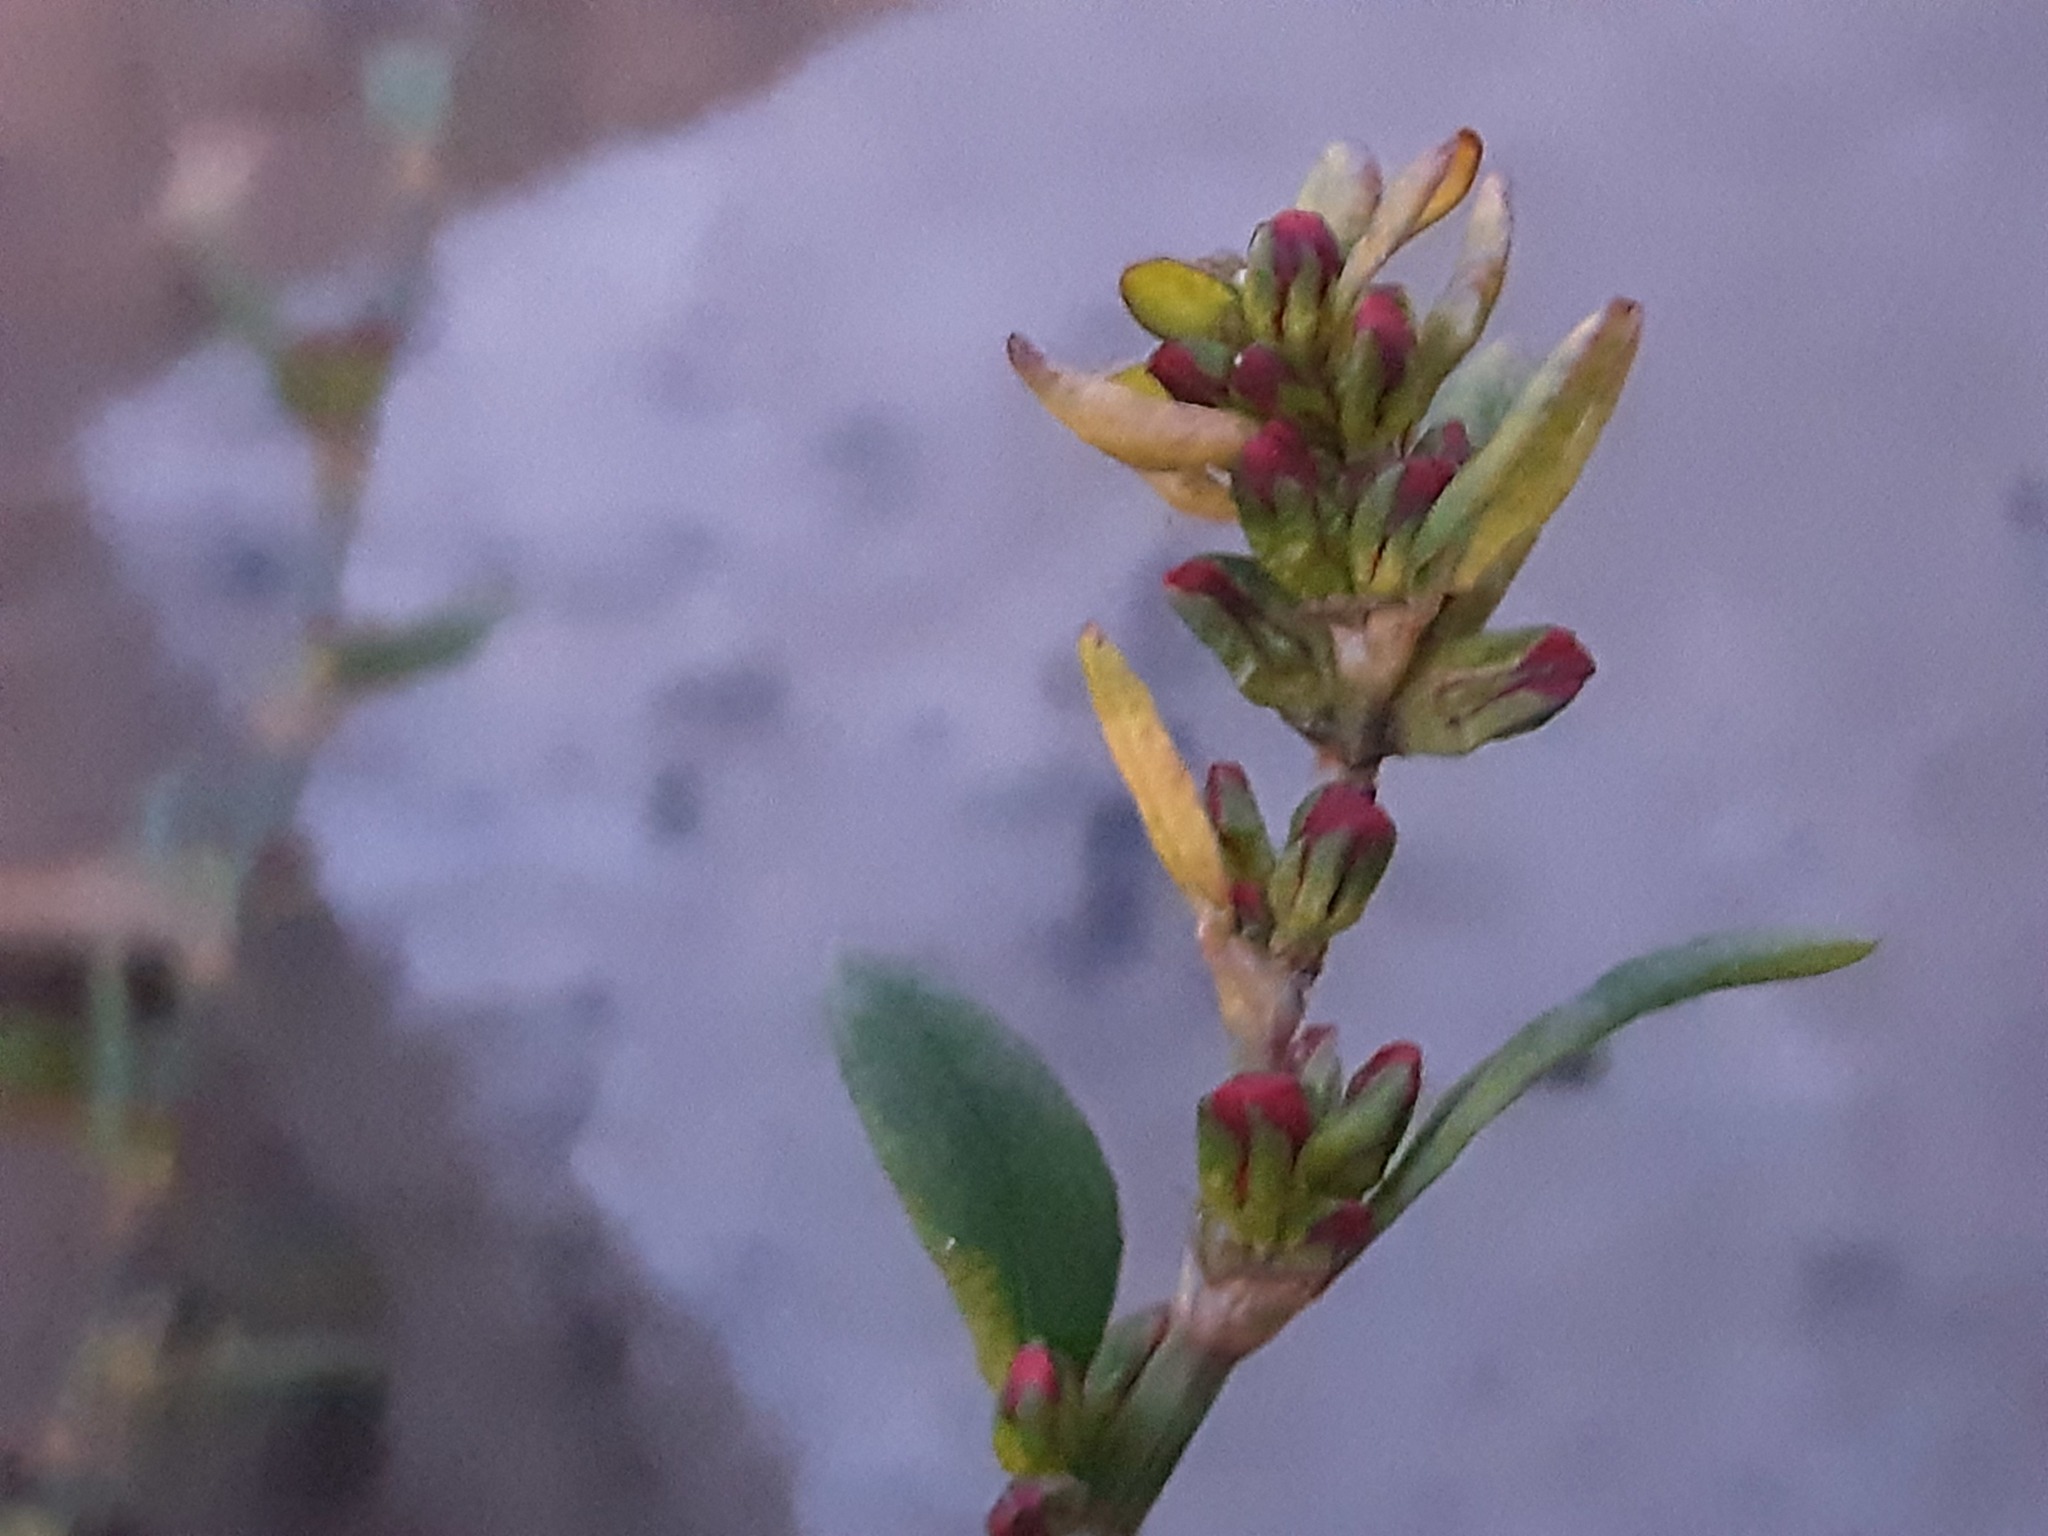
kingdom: Plantae
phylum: Tracheophyta
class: Magnoliopsida
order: Caryophyllales
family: Polygonaceae
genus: Polygonum
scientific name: Polygonum
